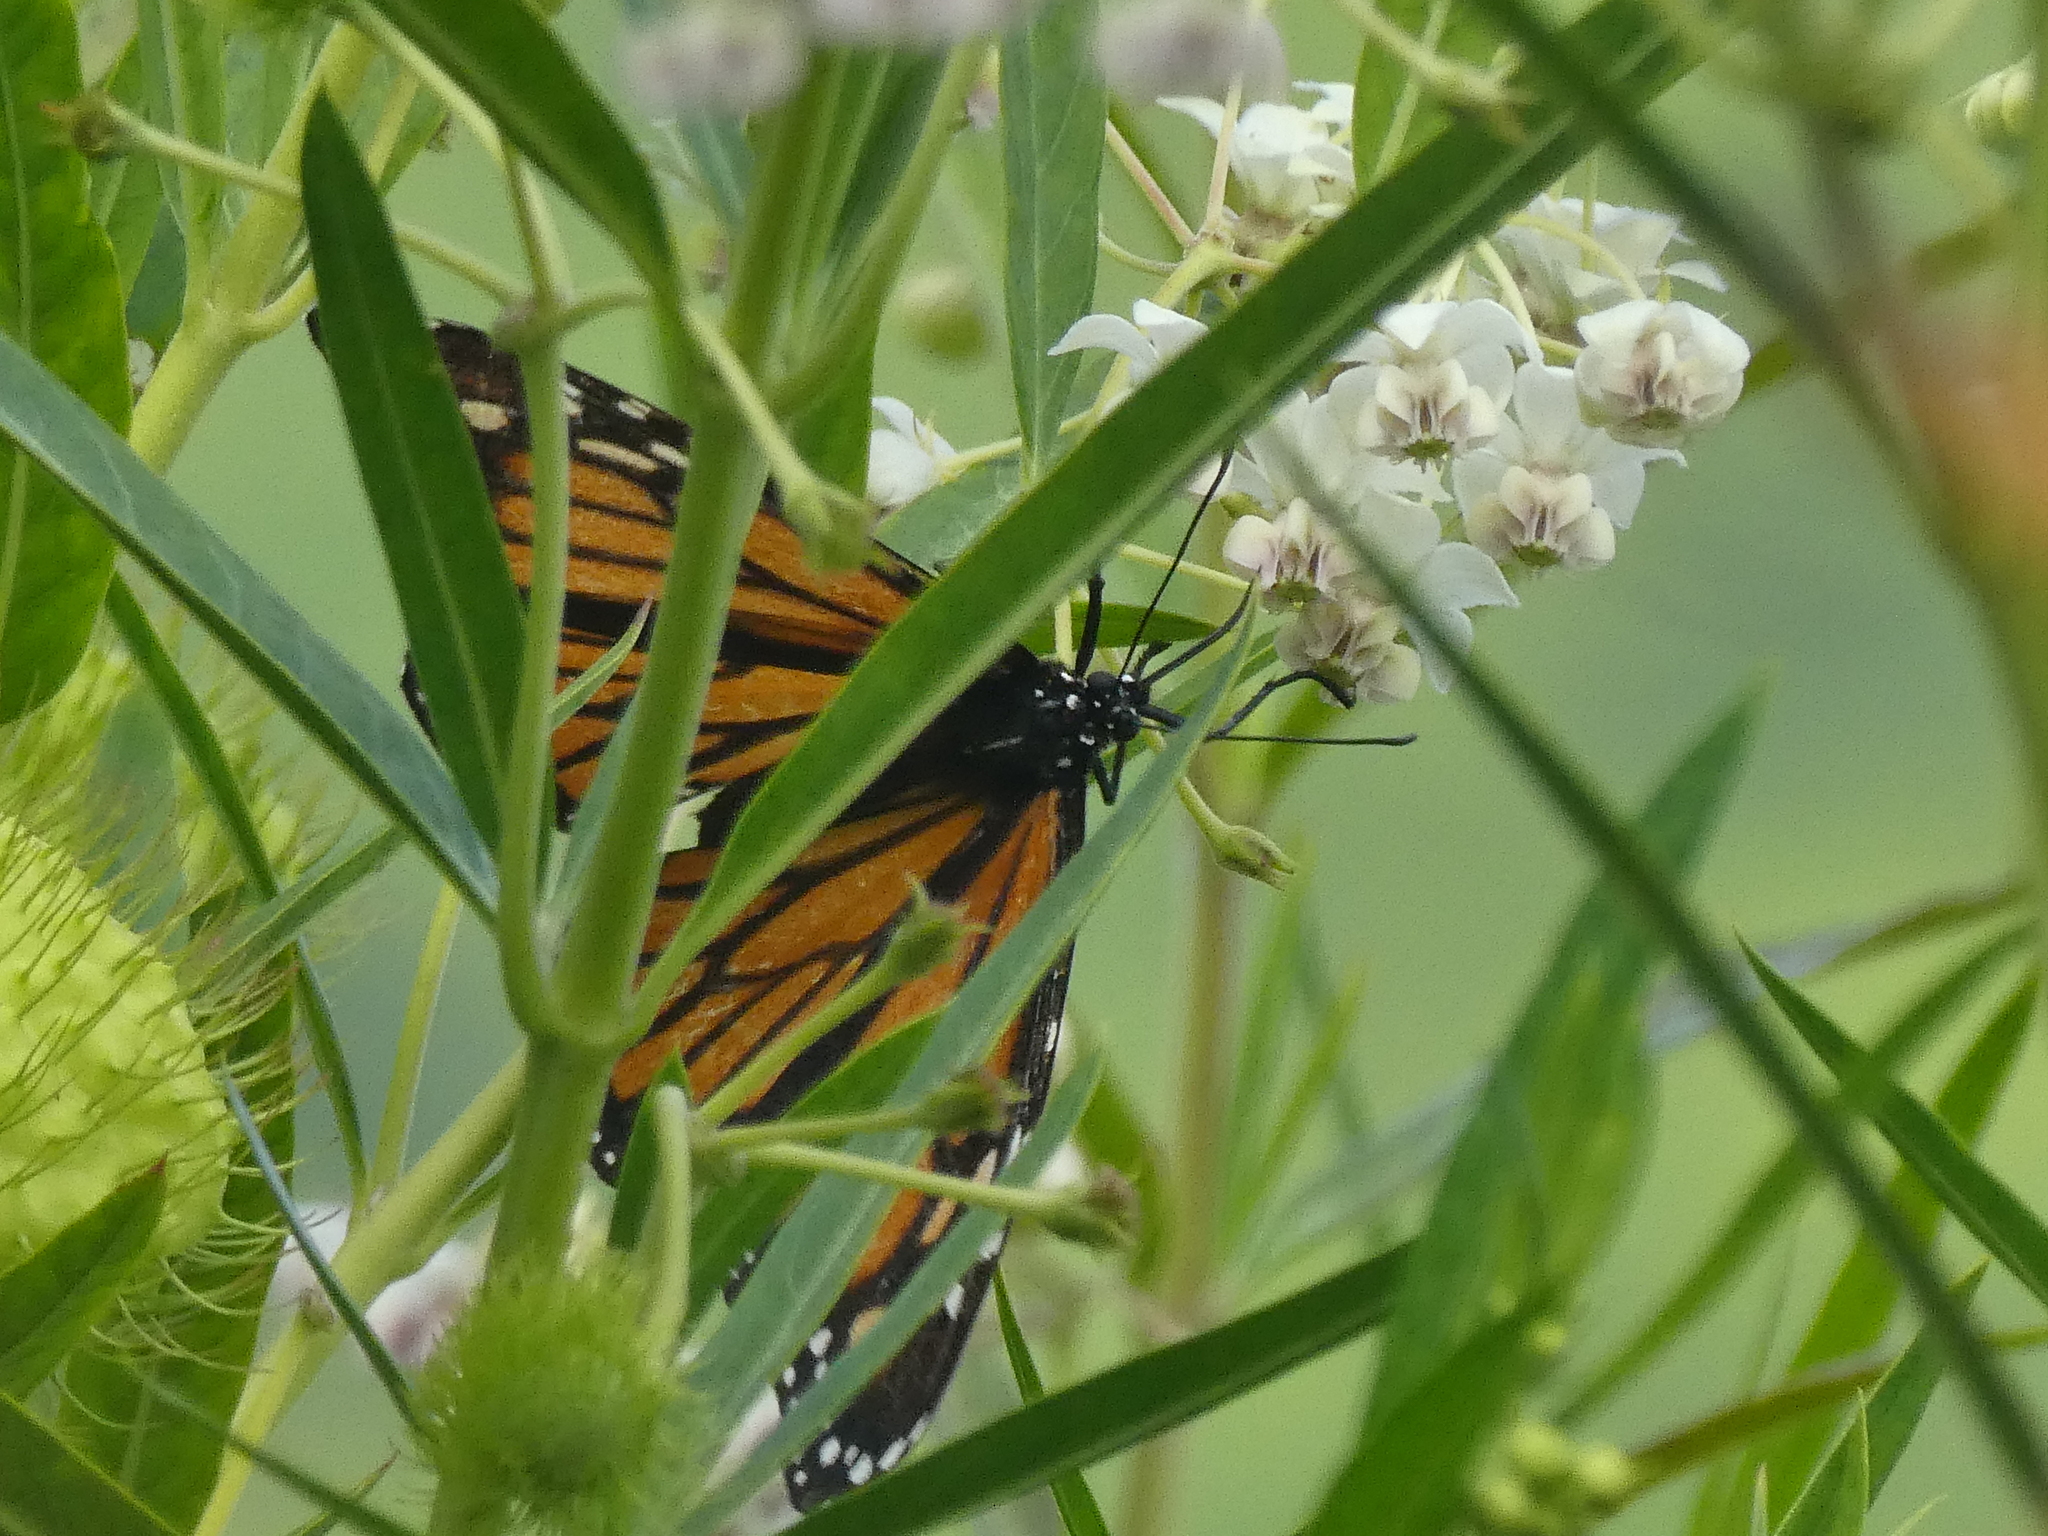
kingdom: Animalia
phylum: Arthropoda
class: Insecta
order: Lepidoptera
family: Nymphalidae
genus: Danaus
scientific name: Danaus plexippus
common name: Monarch
